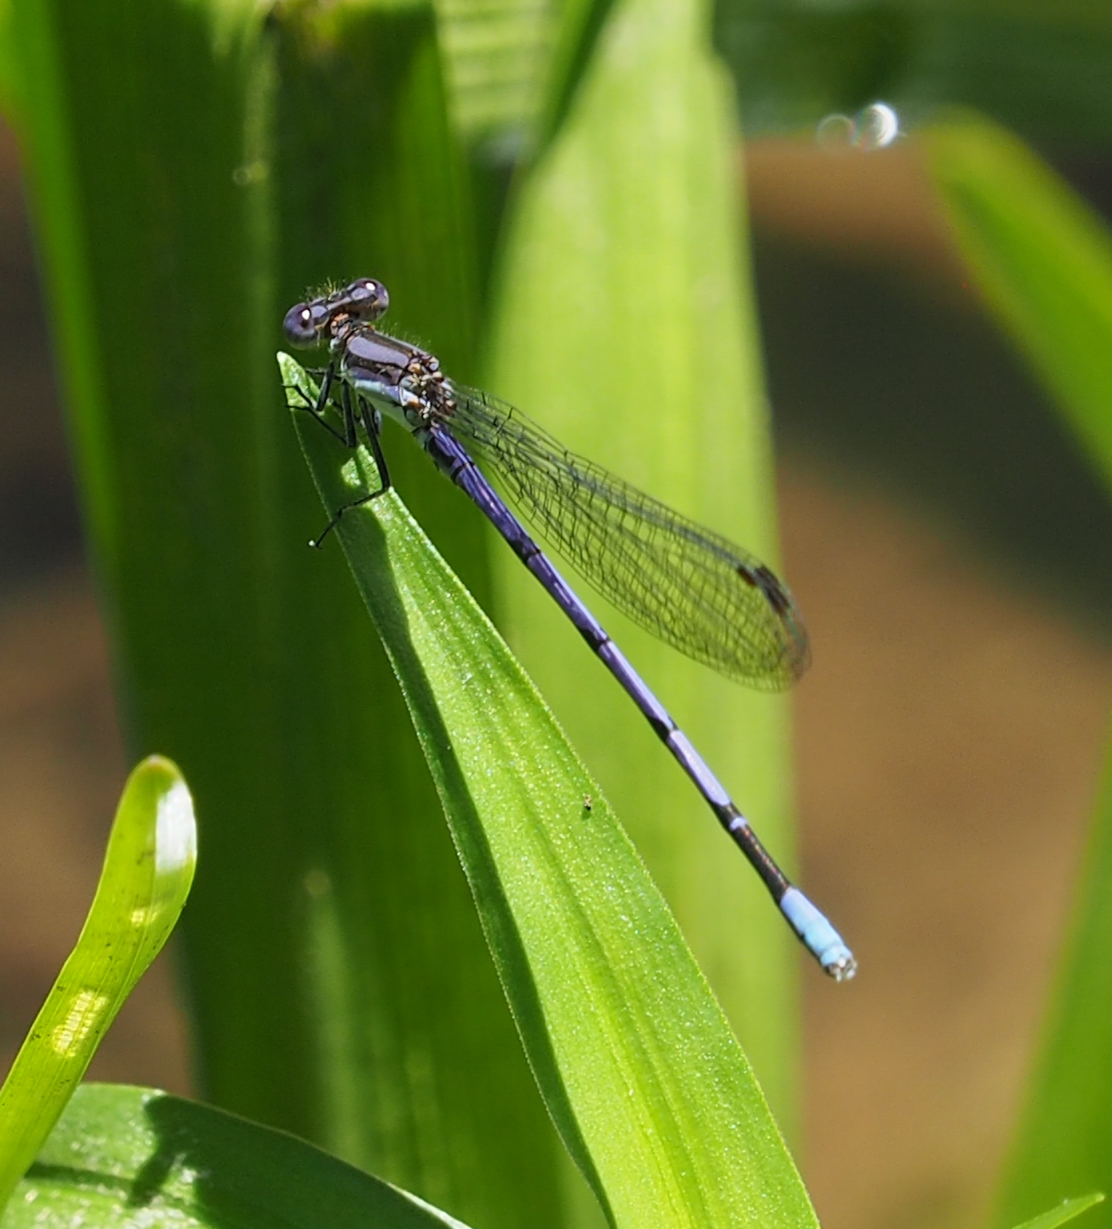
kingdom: Animalia
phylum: Arthropoda
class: Insecta
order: Odonata
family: Coenagrionidae
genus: Argia
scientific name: Argia fumipennis
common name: Variable dancer
